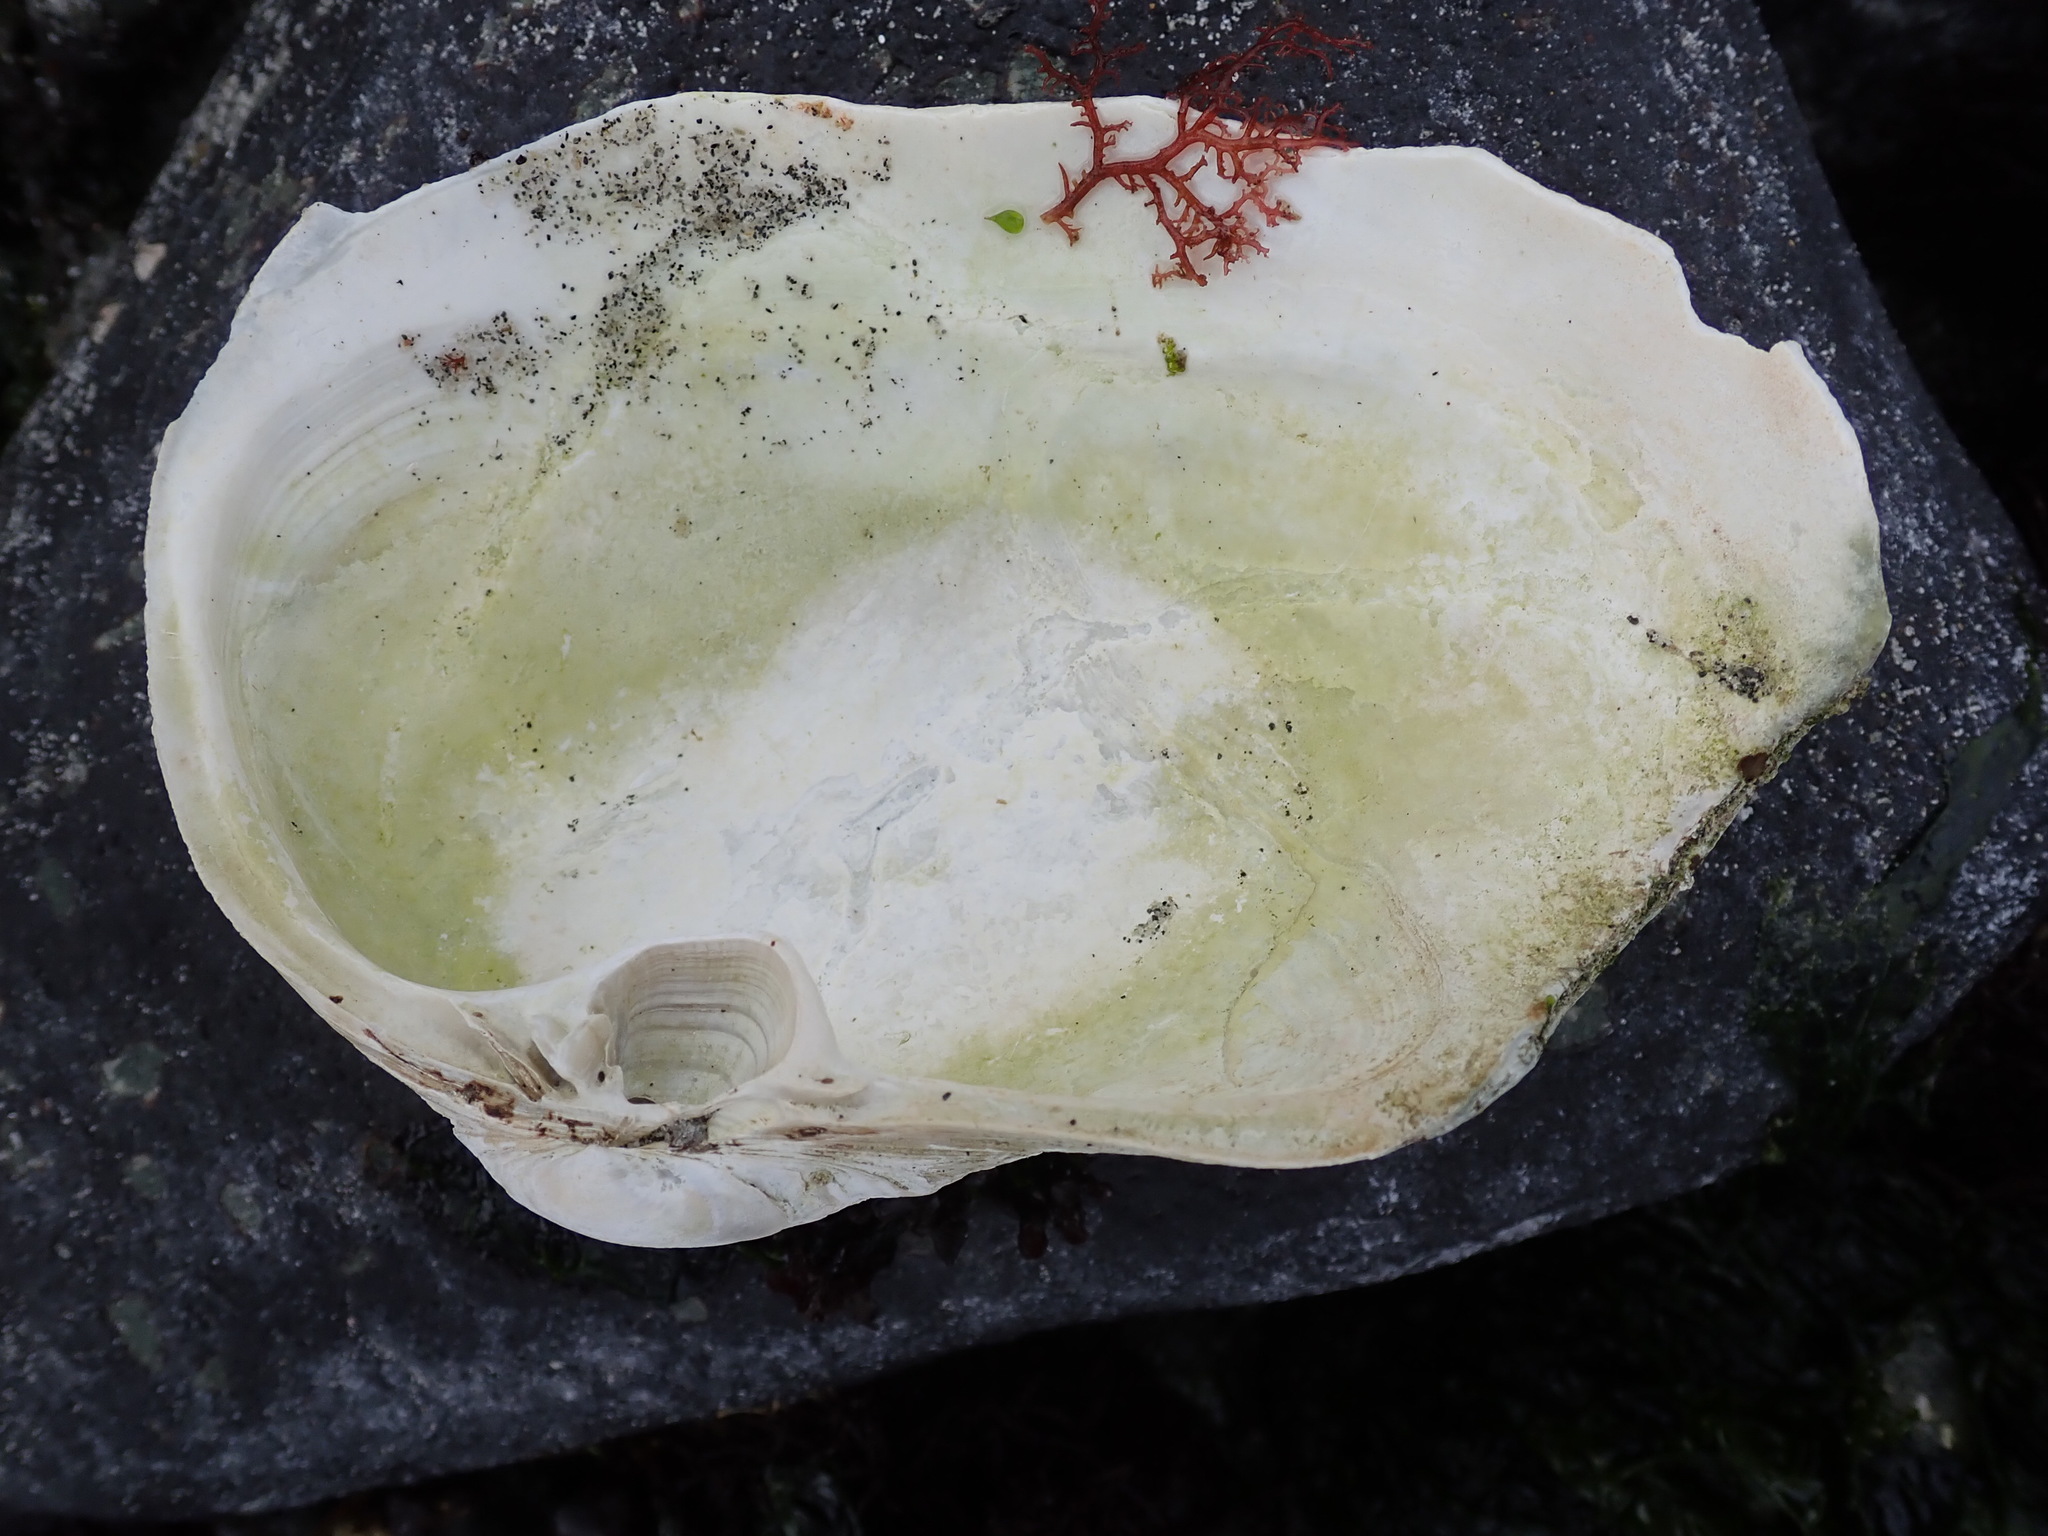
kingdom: Animalia
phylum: Mollusca
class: Bivalvia
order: Venerida
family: Mactridae
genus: Tresus
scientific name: Tresus nuttallii
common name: Pacific gaper clam
